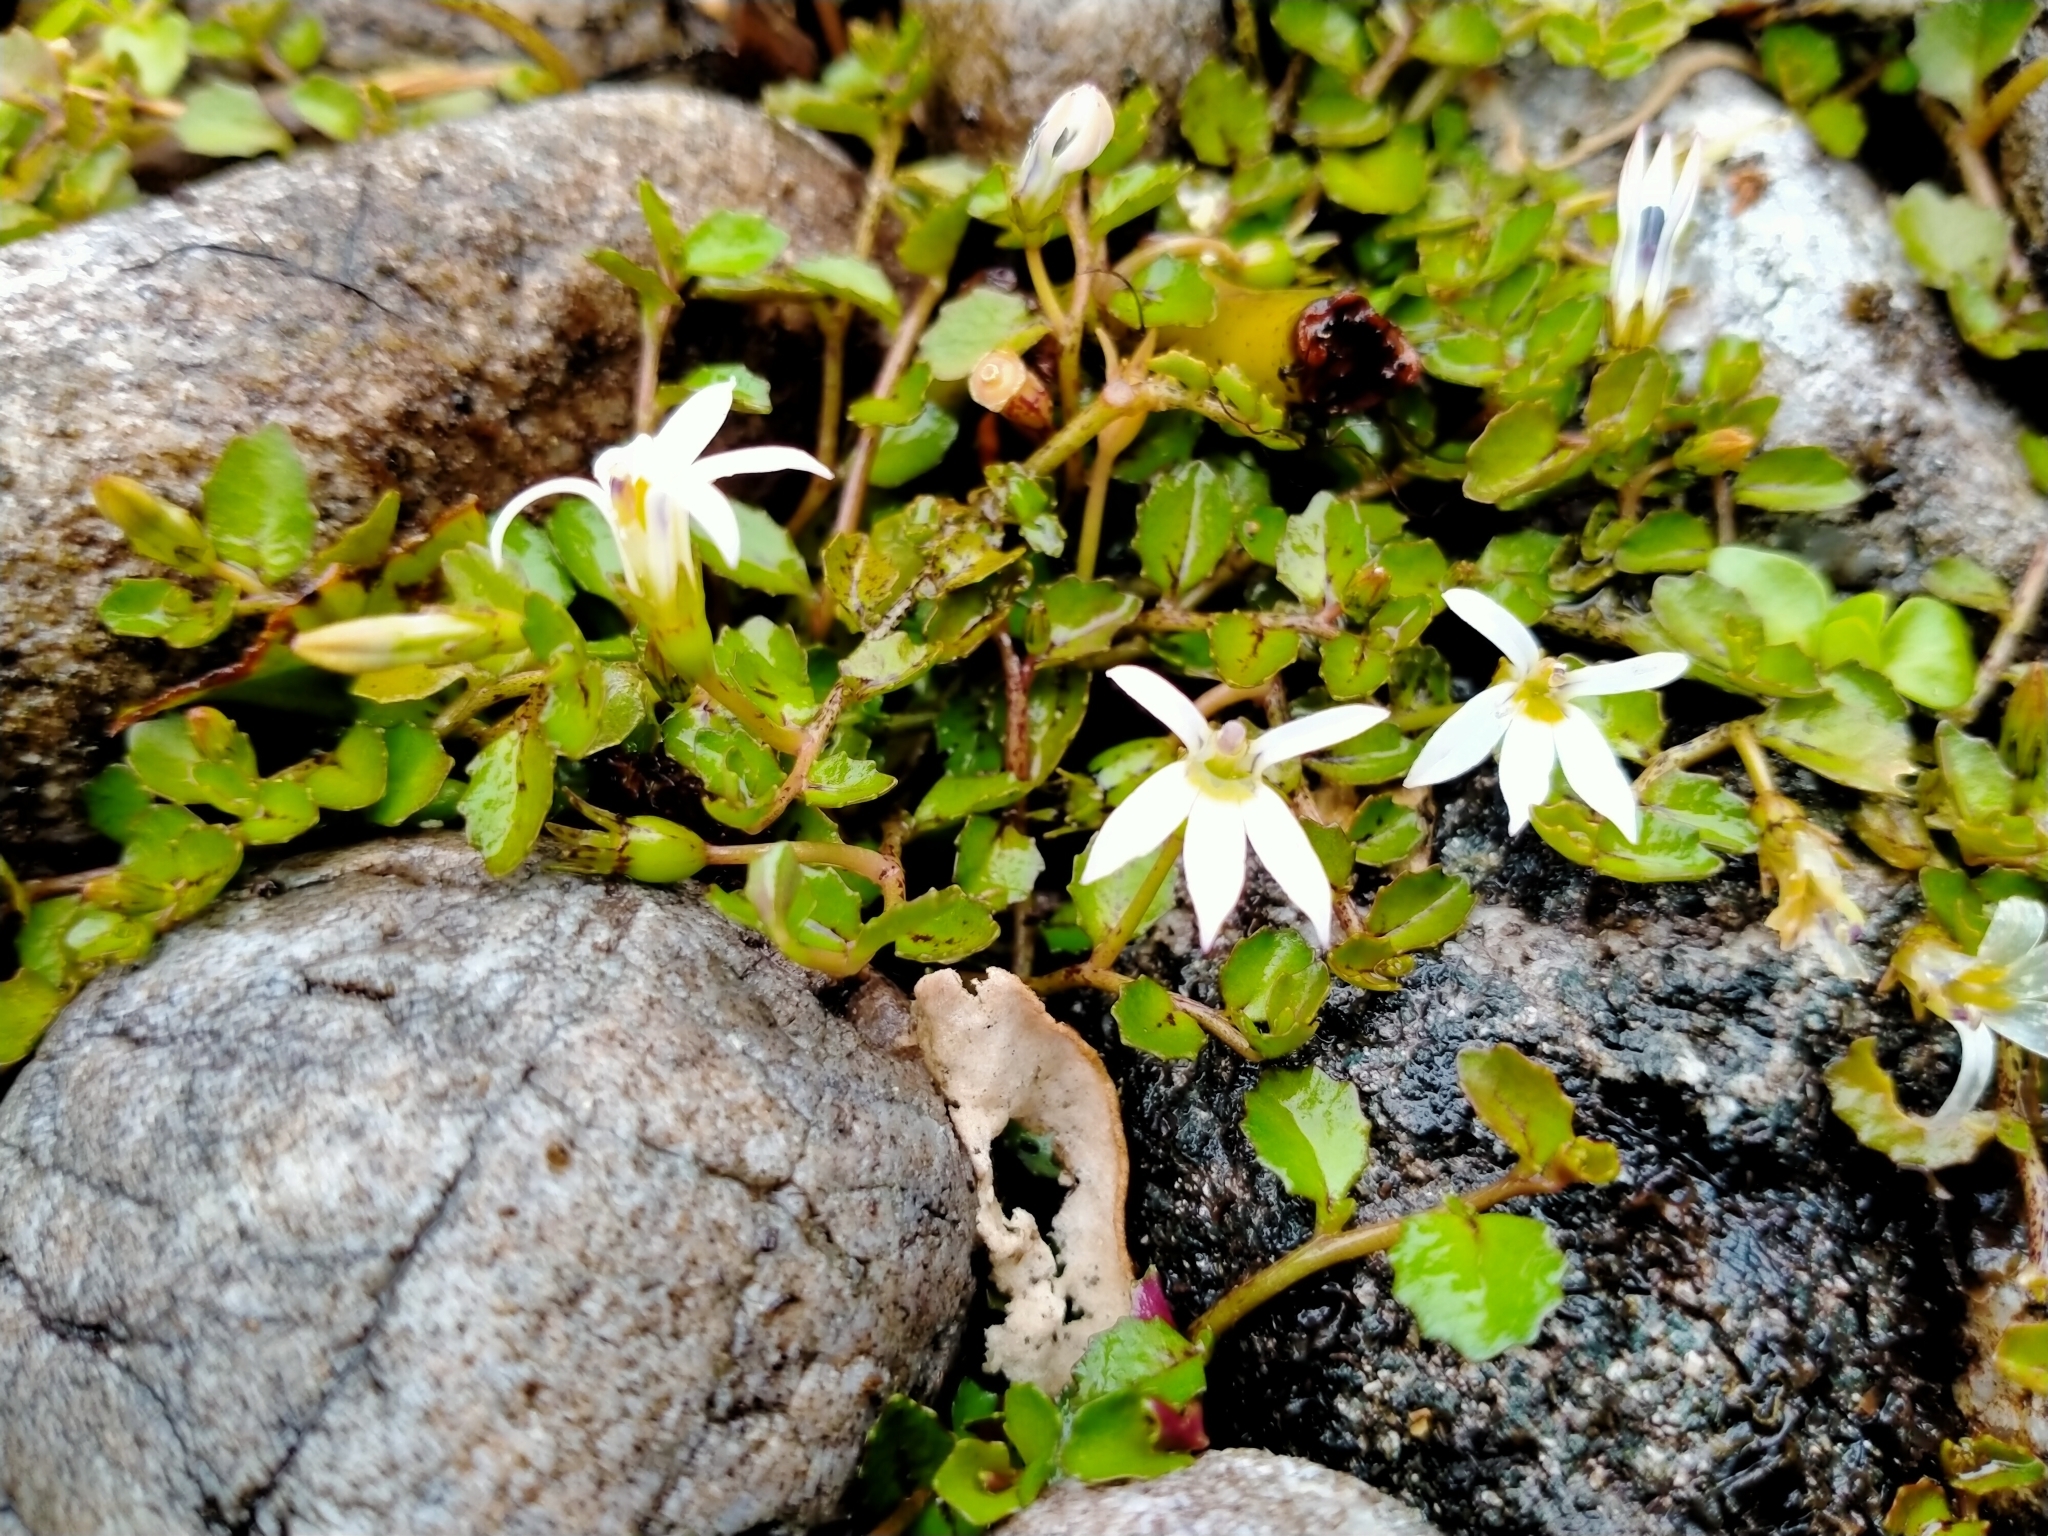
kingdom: Plantae
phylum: Tracheophyta
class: Magnoliopsida
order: Asterales
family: Campanulaceae
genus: Lobelia
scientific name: Lobelia angulata
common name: Lawn lobelia
